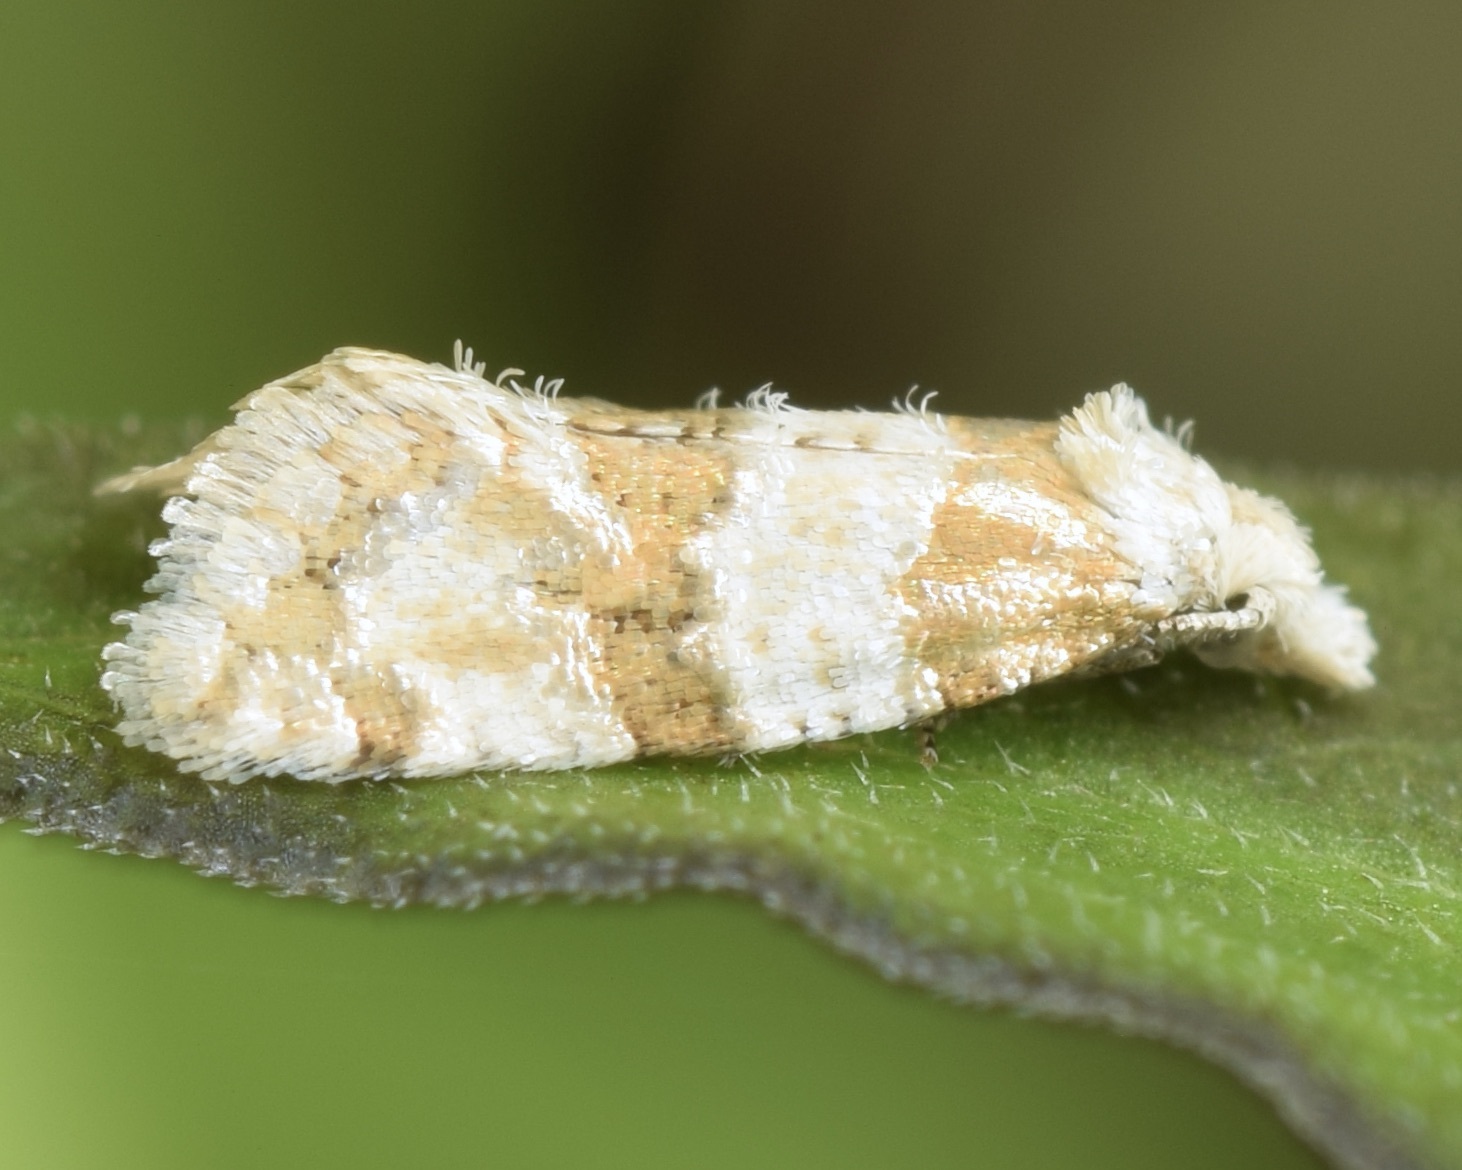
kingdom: Animalia
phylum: Arthropoda
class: Insecta
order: Lepidoptera
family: Tortricidae
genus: Aethes
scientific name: Aethes argentilimitana
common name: Silver-bordered aethes
